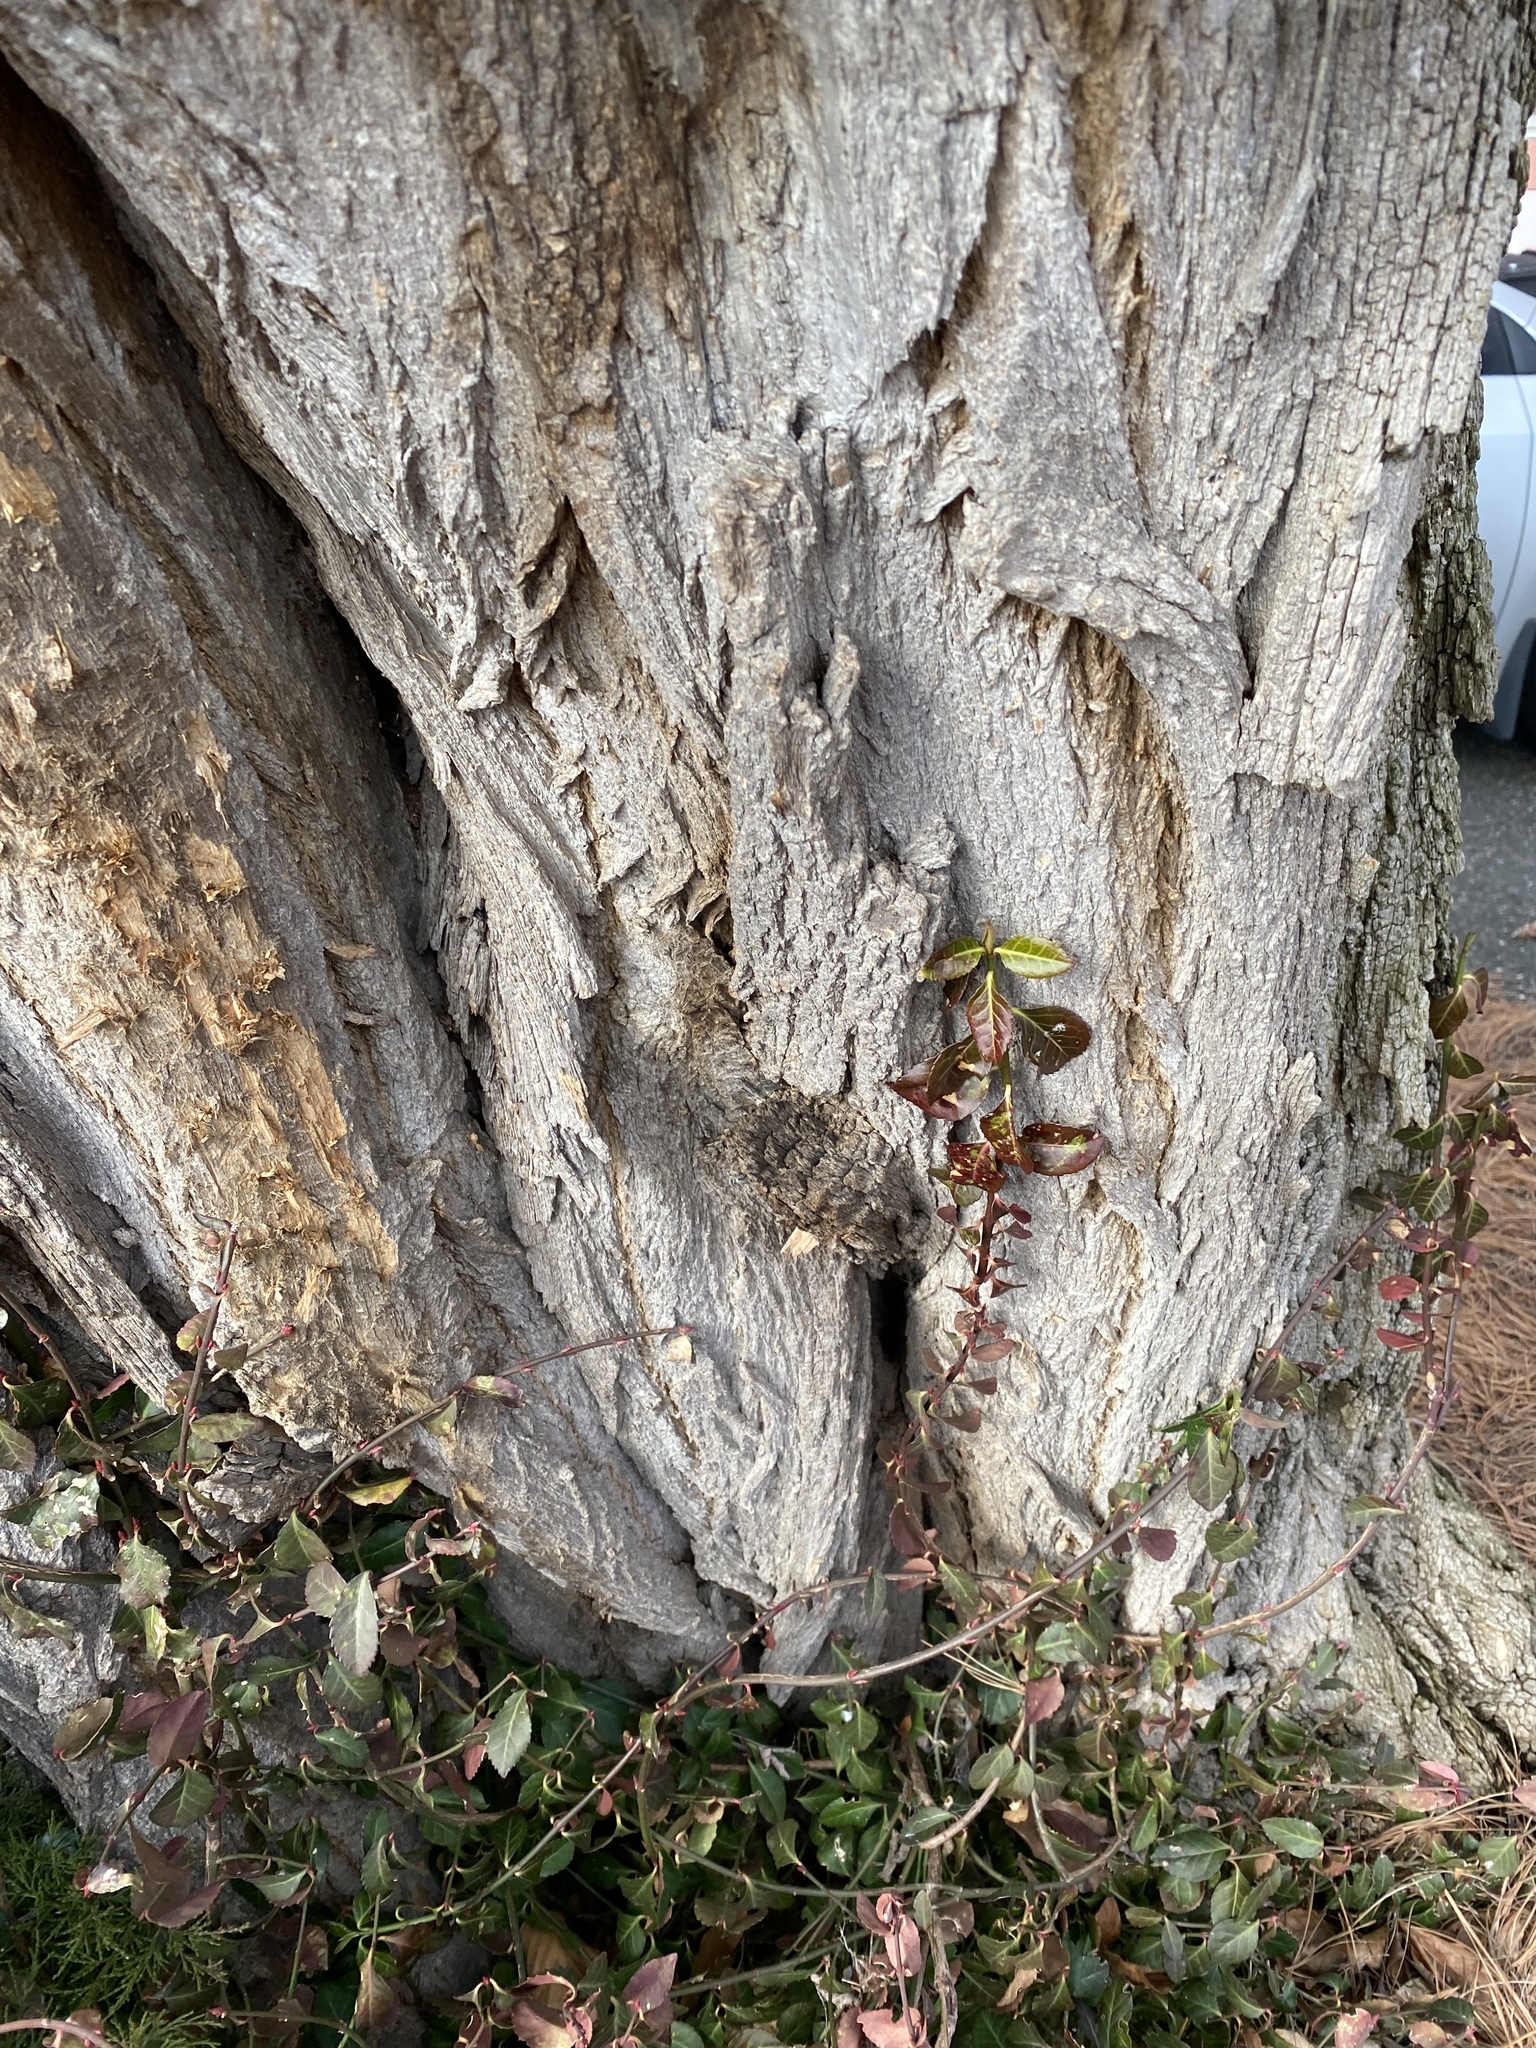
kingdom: Plantae
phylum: Tracheophyta
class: Magnoliopsida
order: Celastrales
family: Celastraceae
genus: Euonymus
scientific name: Euonymus fortunei
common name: Climbing euonymus
